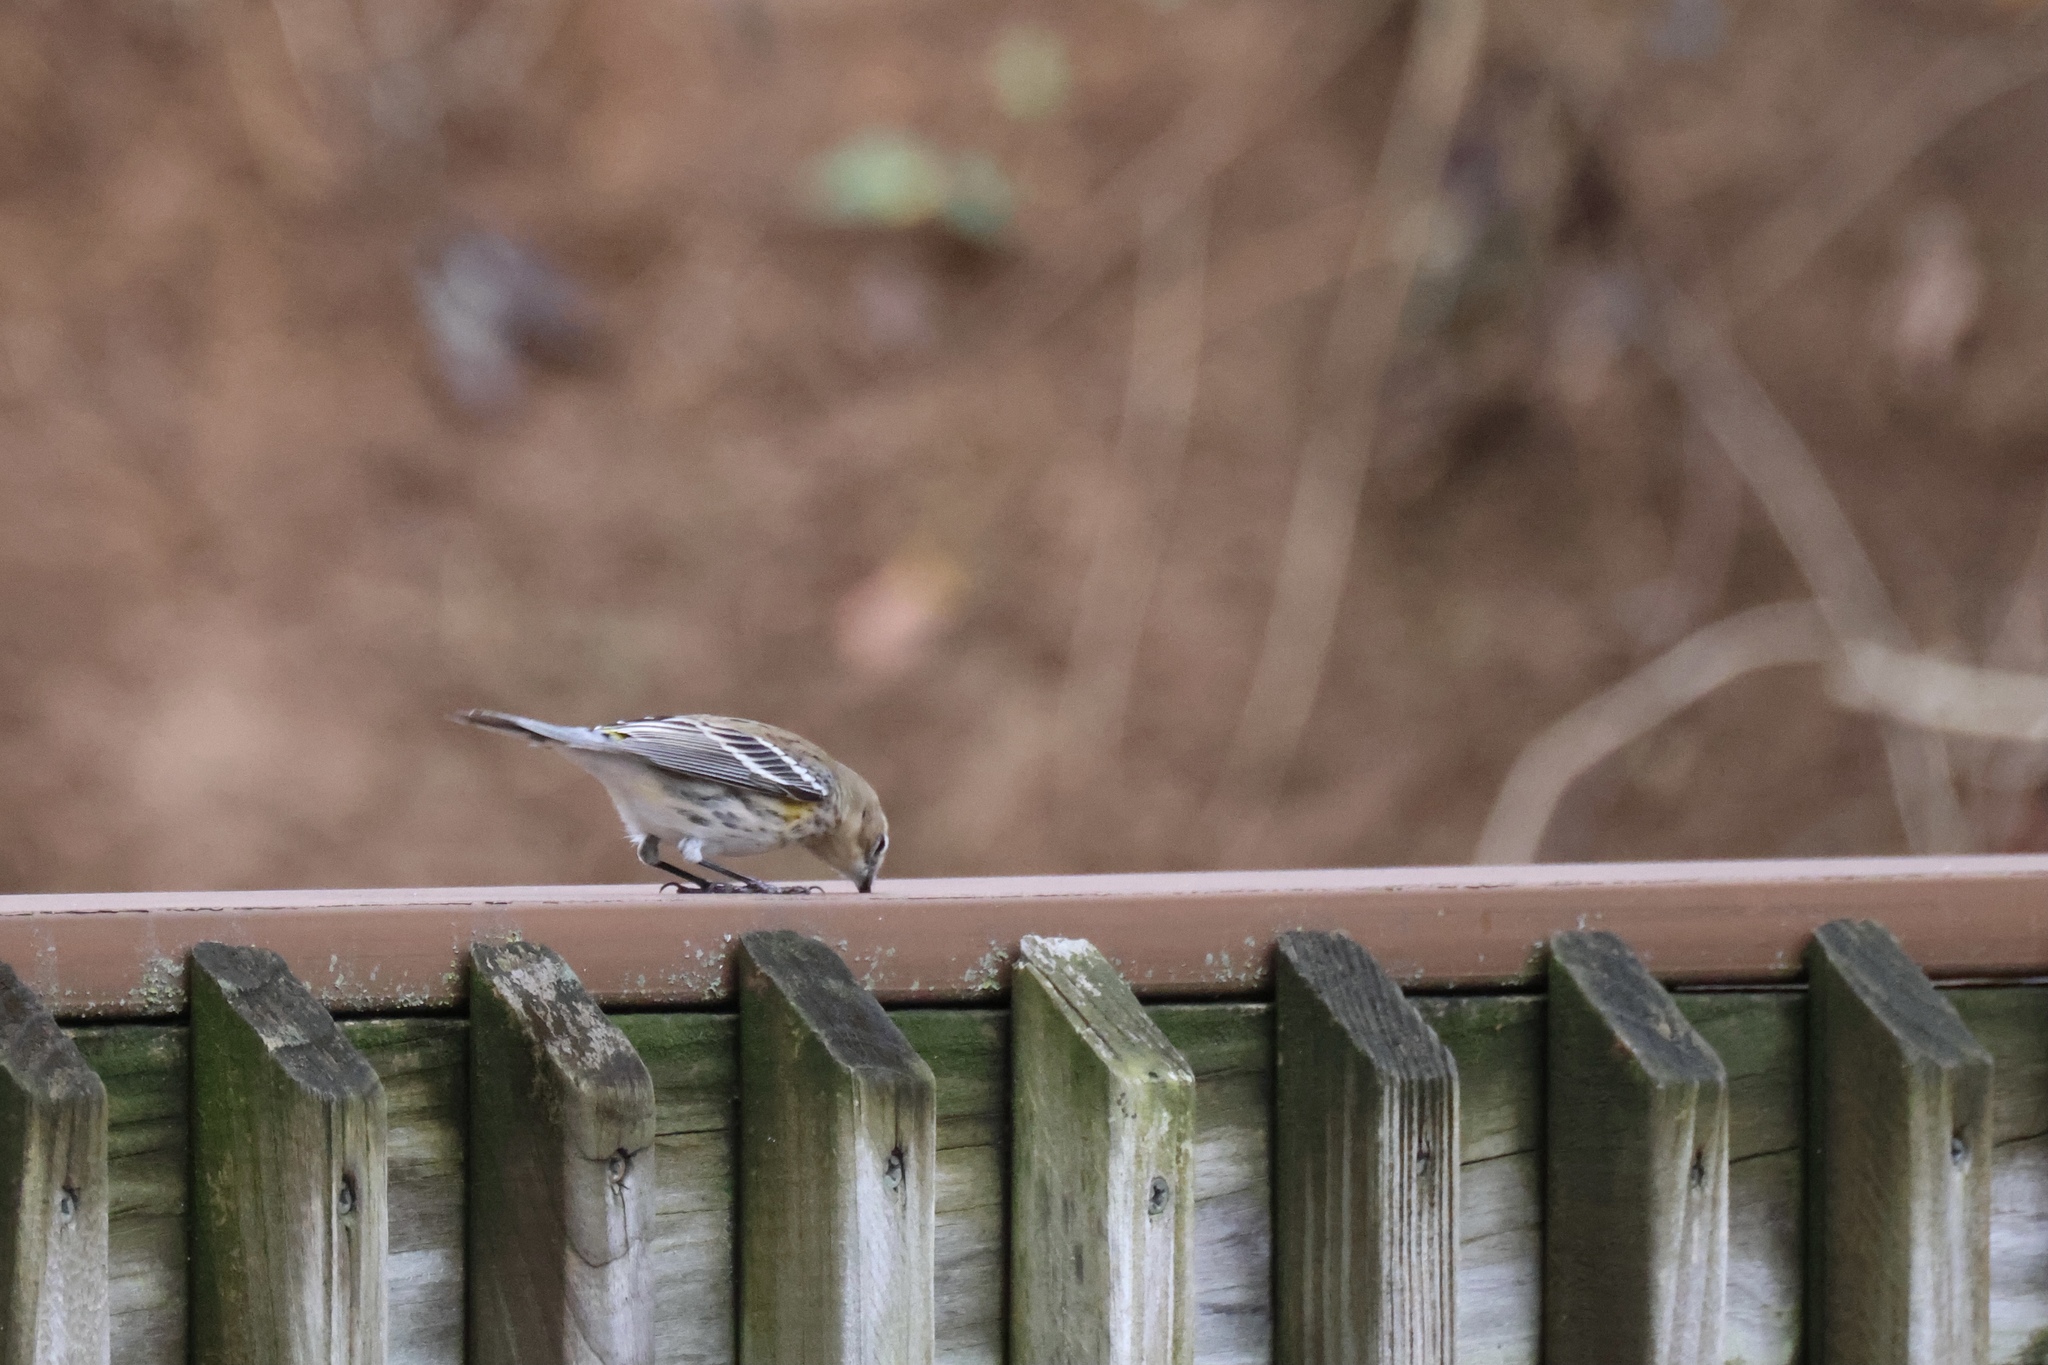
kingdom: Animalia
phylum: Chordata
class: Aves
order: Passeriformes
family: Parulidae
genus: Setophaga
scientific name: Setophaga coronata
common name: Myrtle warbler
